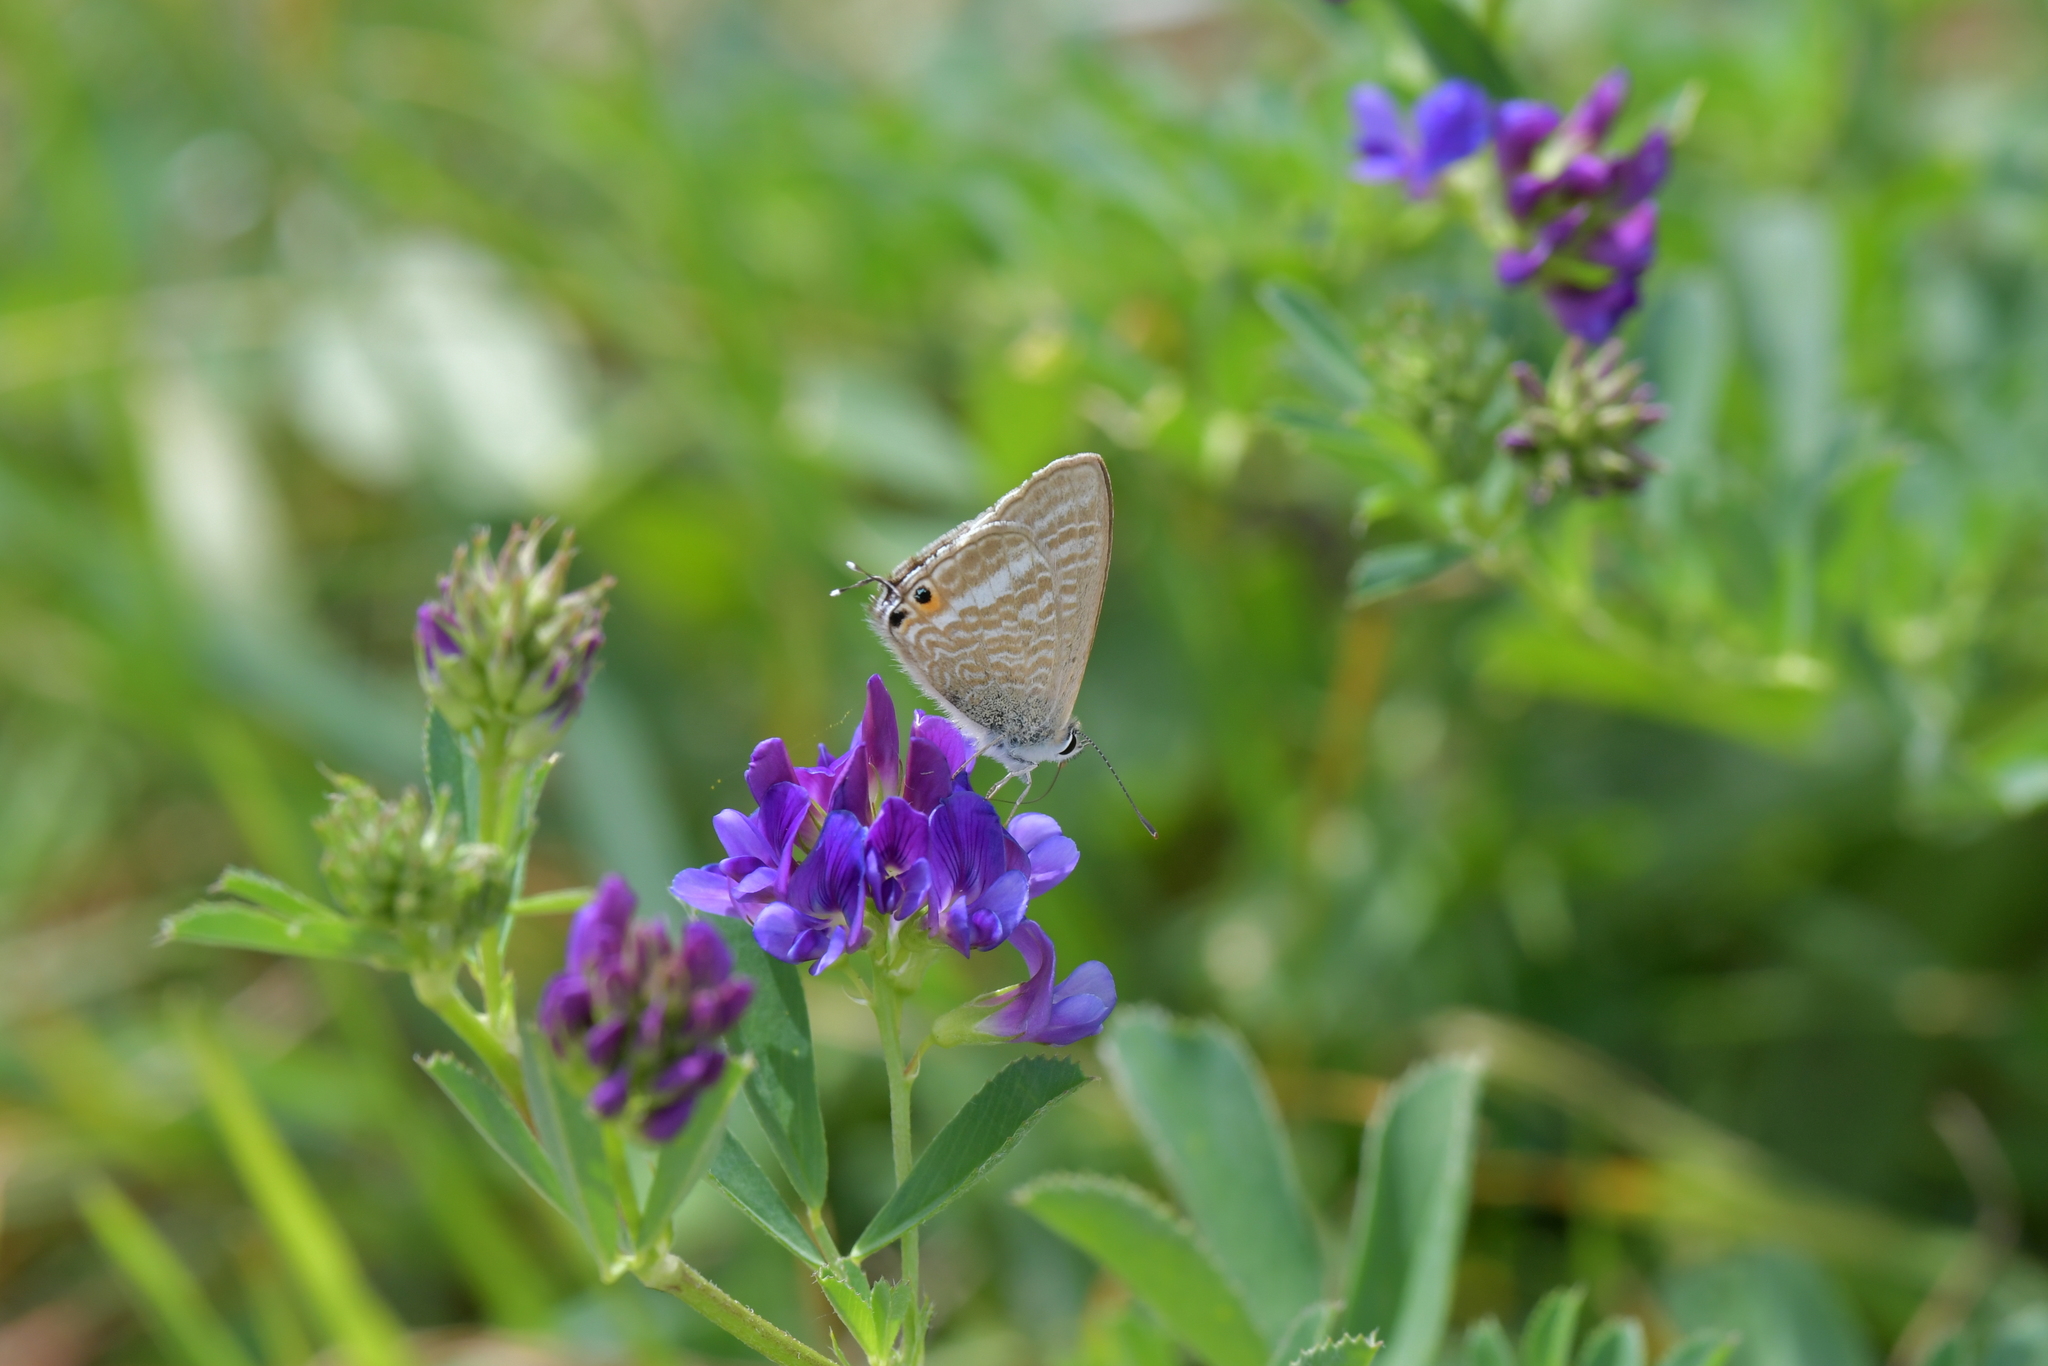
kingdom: Animalia
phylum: Arthropoda
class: Insecta
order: Lepidoptera
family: Lycaenidae
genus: Lampides
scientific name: Lampides boeticus
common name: Long-tailed blue
